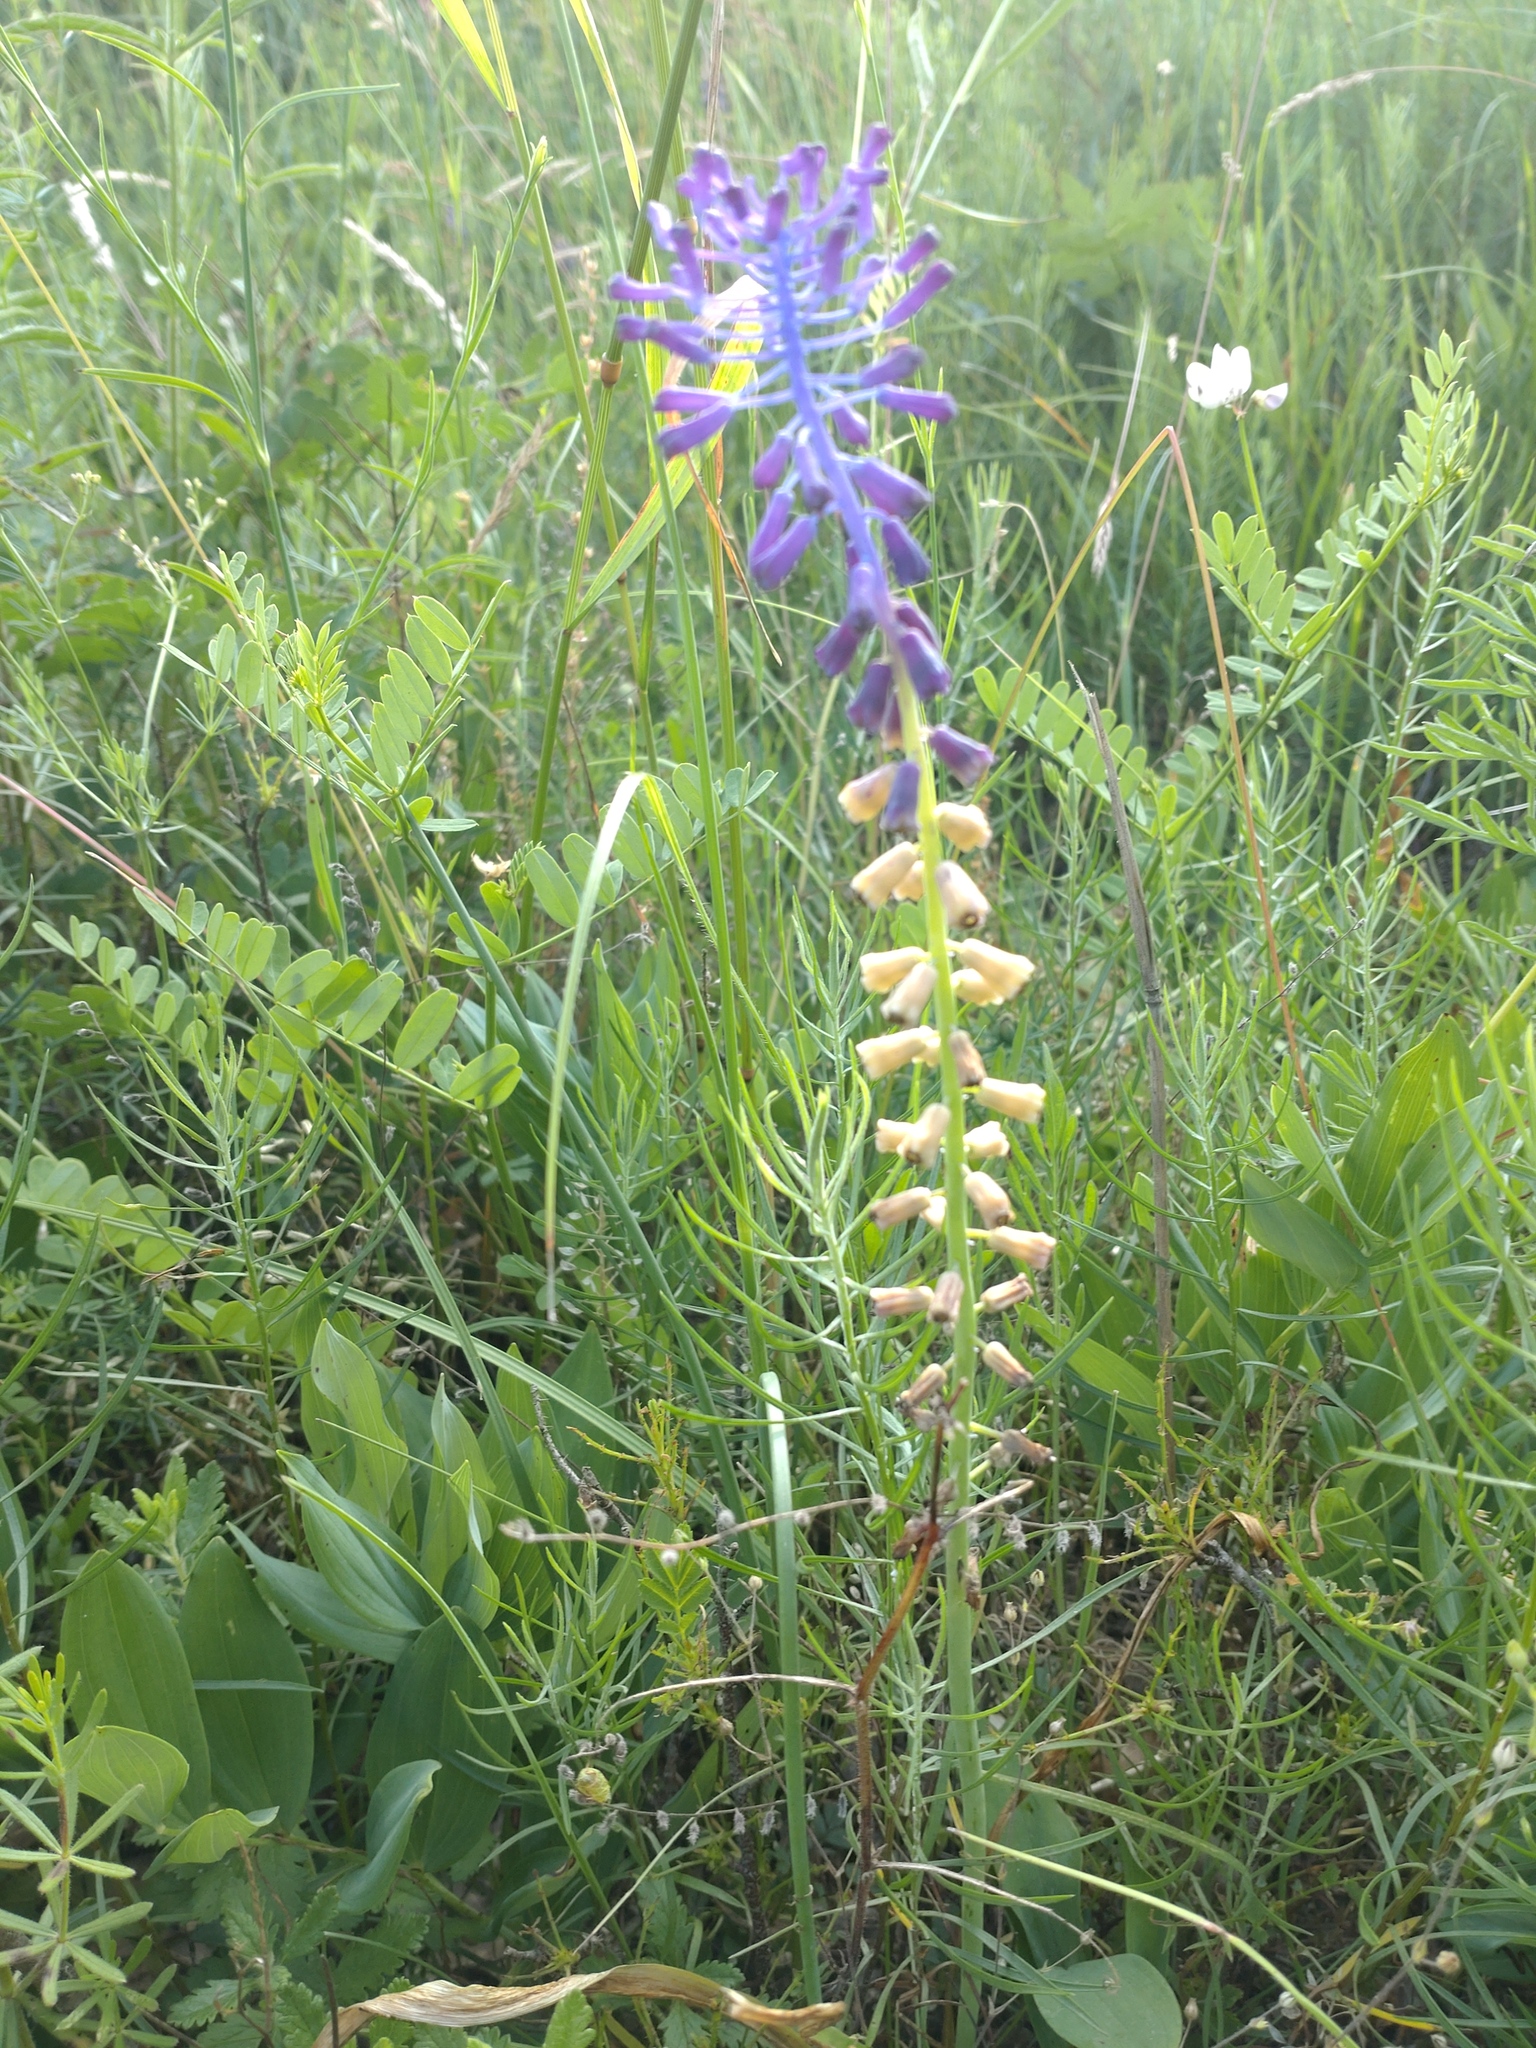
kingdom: Plantae
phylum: Tracheophyta
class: Liliopsida
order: Asparagales
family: Asparagaceae
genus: Muscari
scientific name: Muscari tenuiflorum
